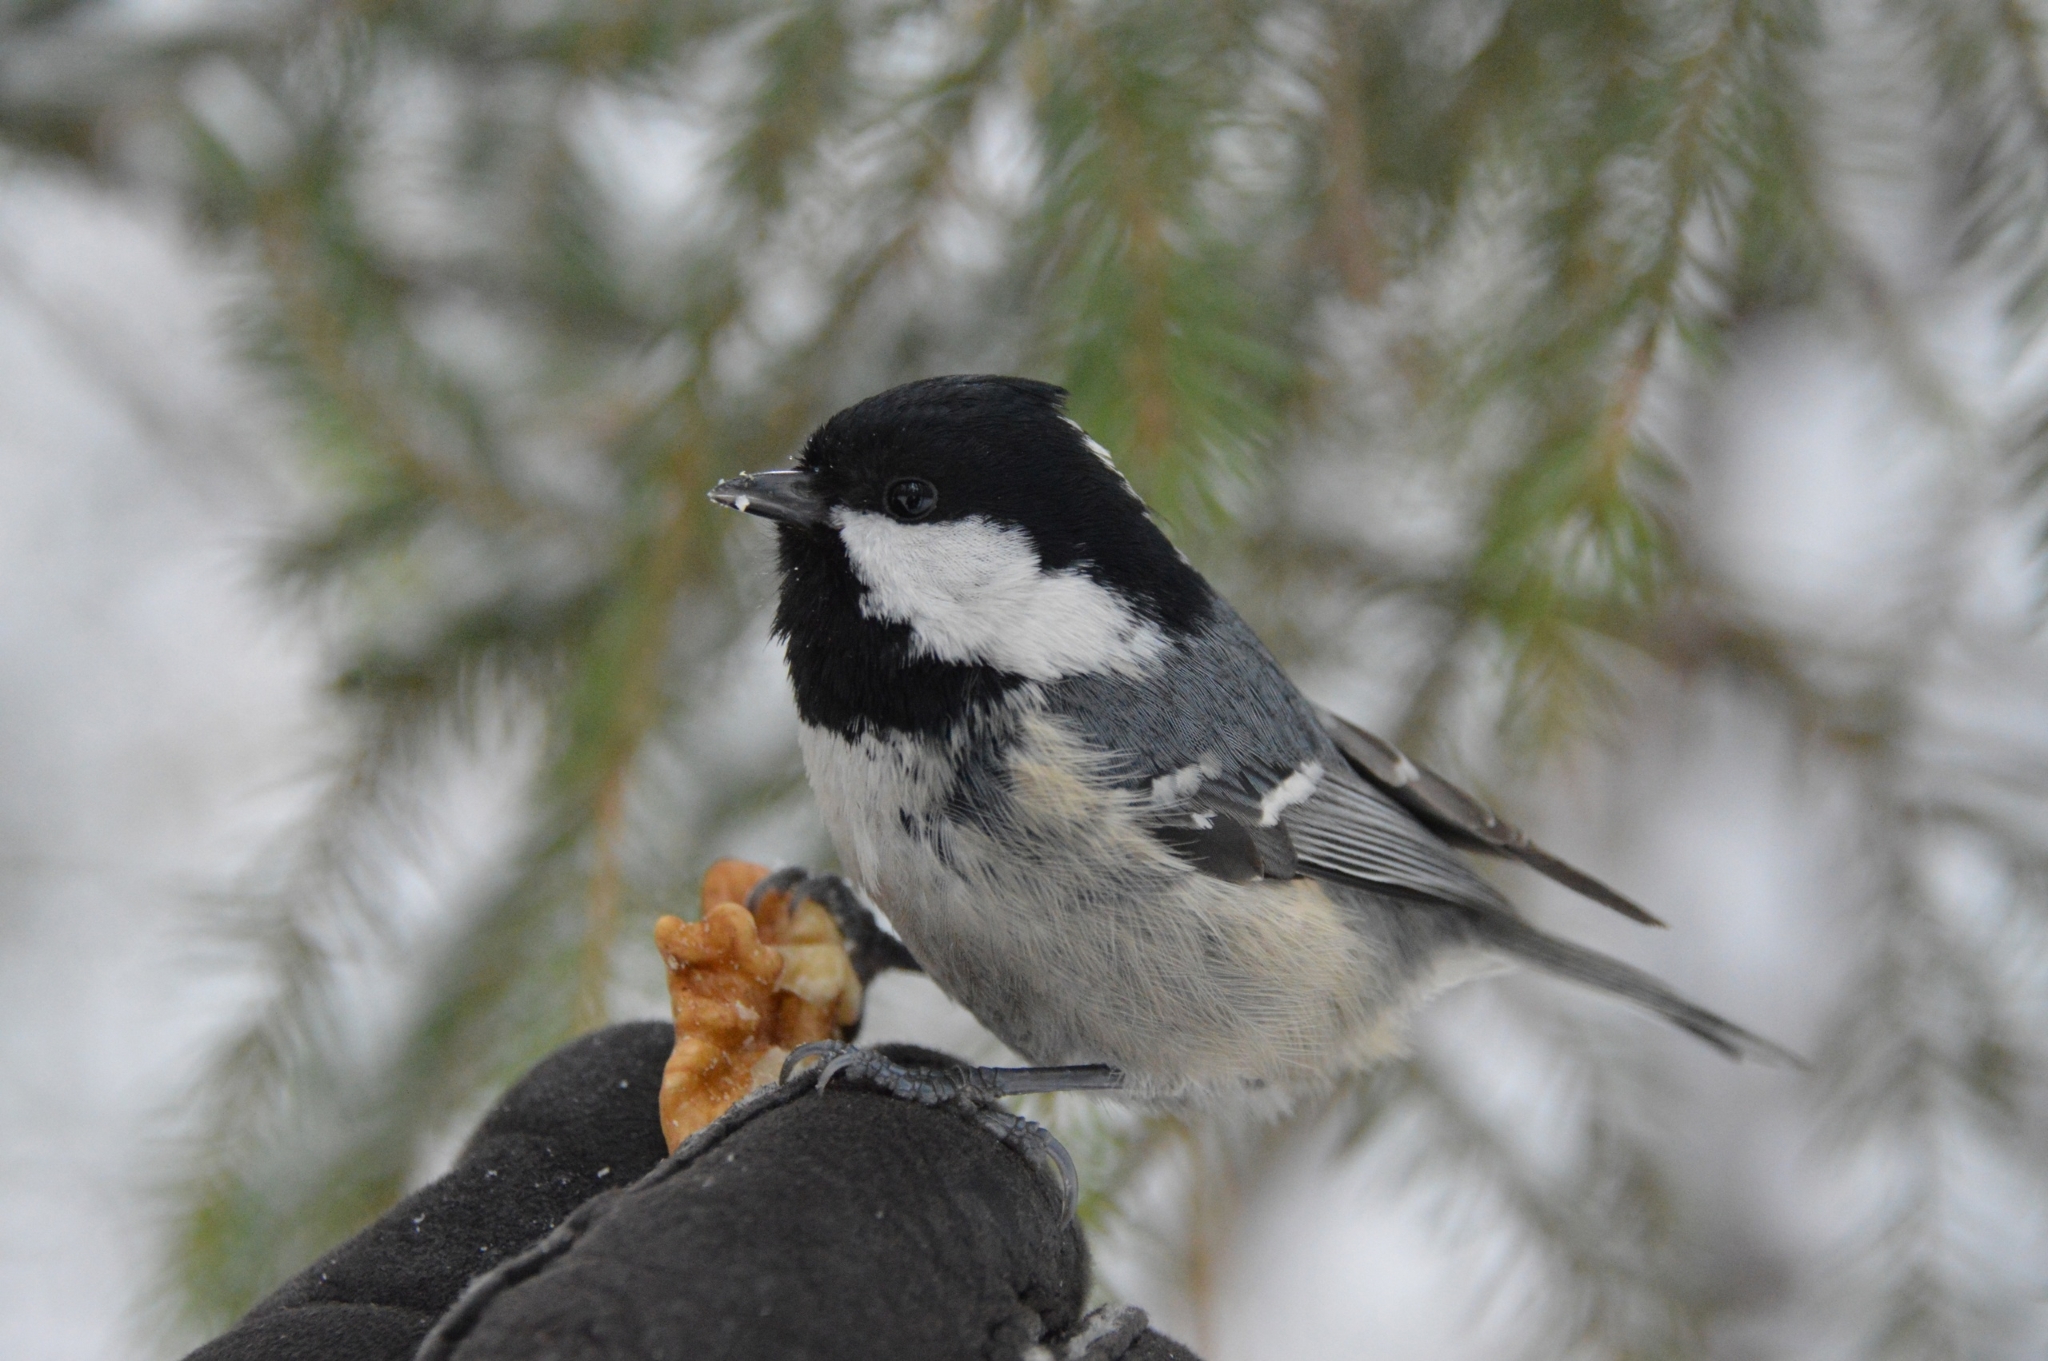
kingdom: Animalia
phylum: Chordata
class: Aves
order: Passeriformes
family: Paridae
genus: Periparus
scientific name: Periparus ater
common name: Coal tit
